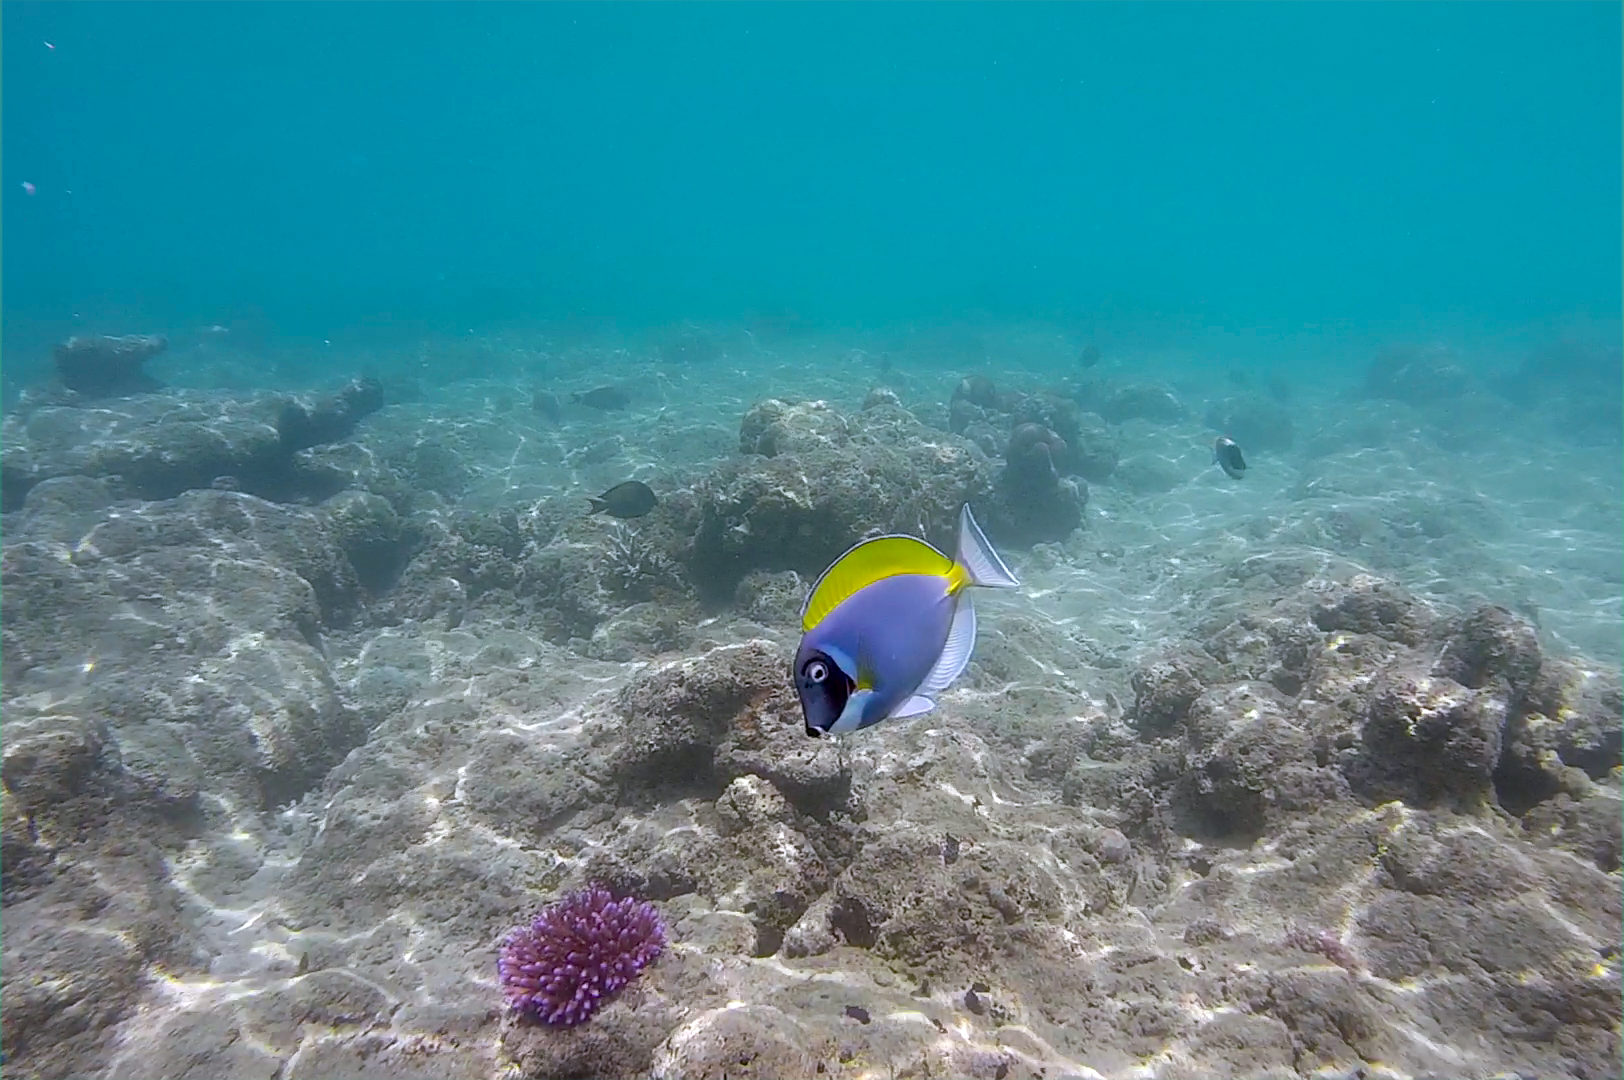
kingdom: Animalia
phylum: Chordata
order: Perciformes
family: Acanthuridae
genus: Acanthurus
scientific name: Acanthurus leucosternon
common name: Blue surgeonfish
